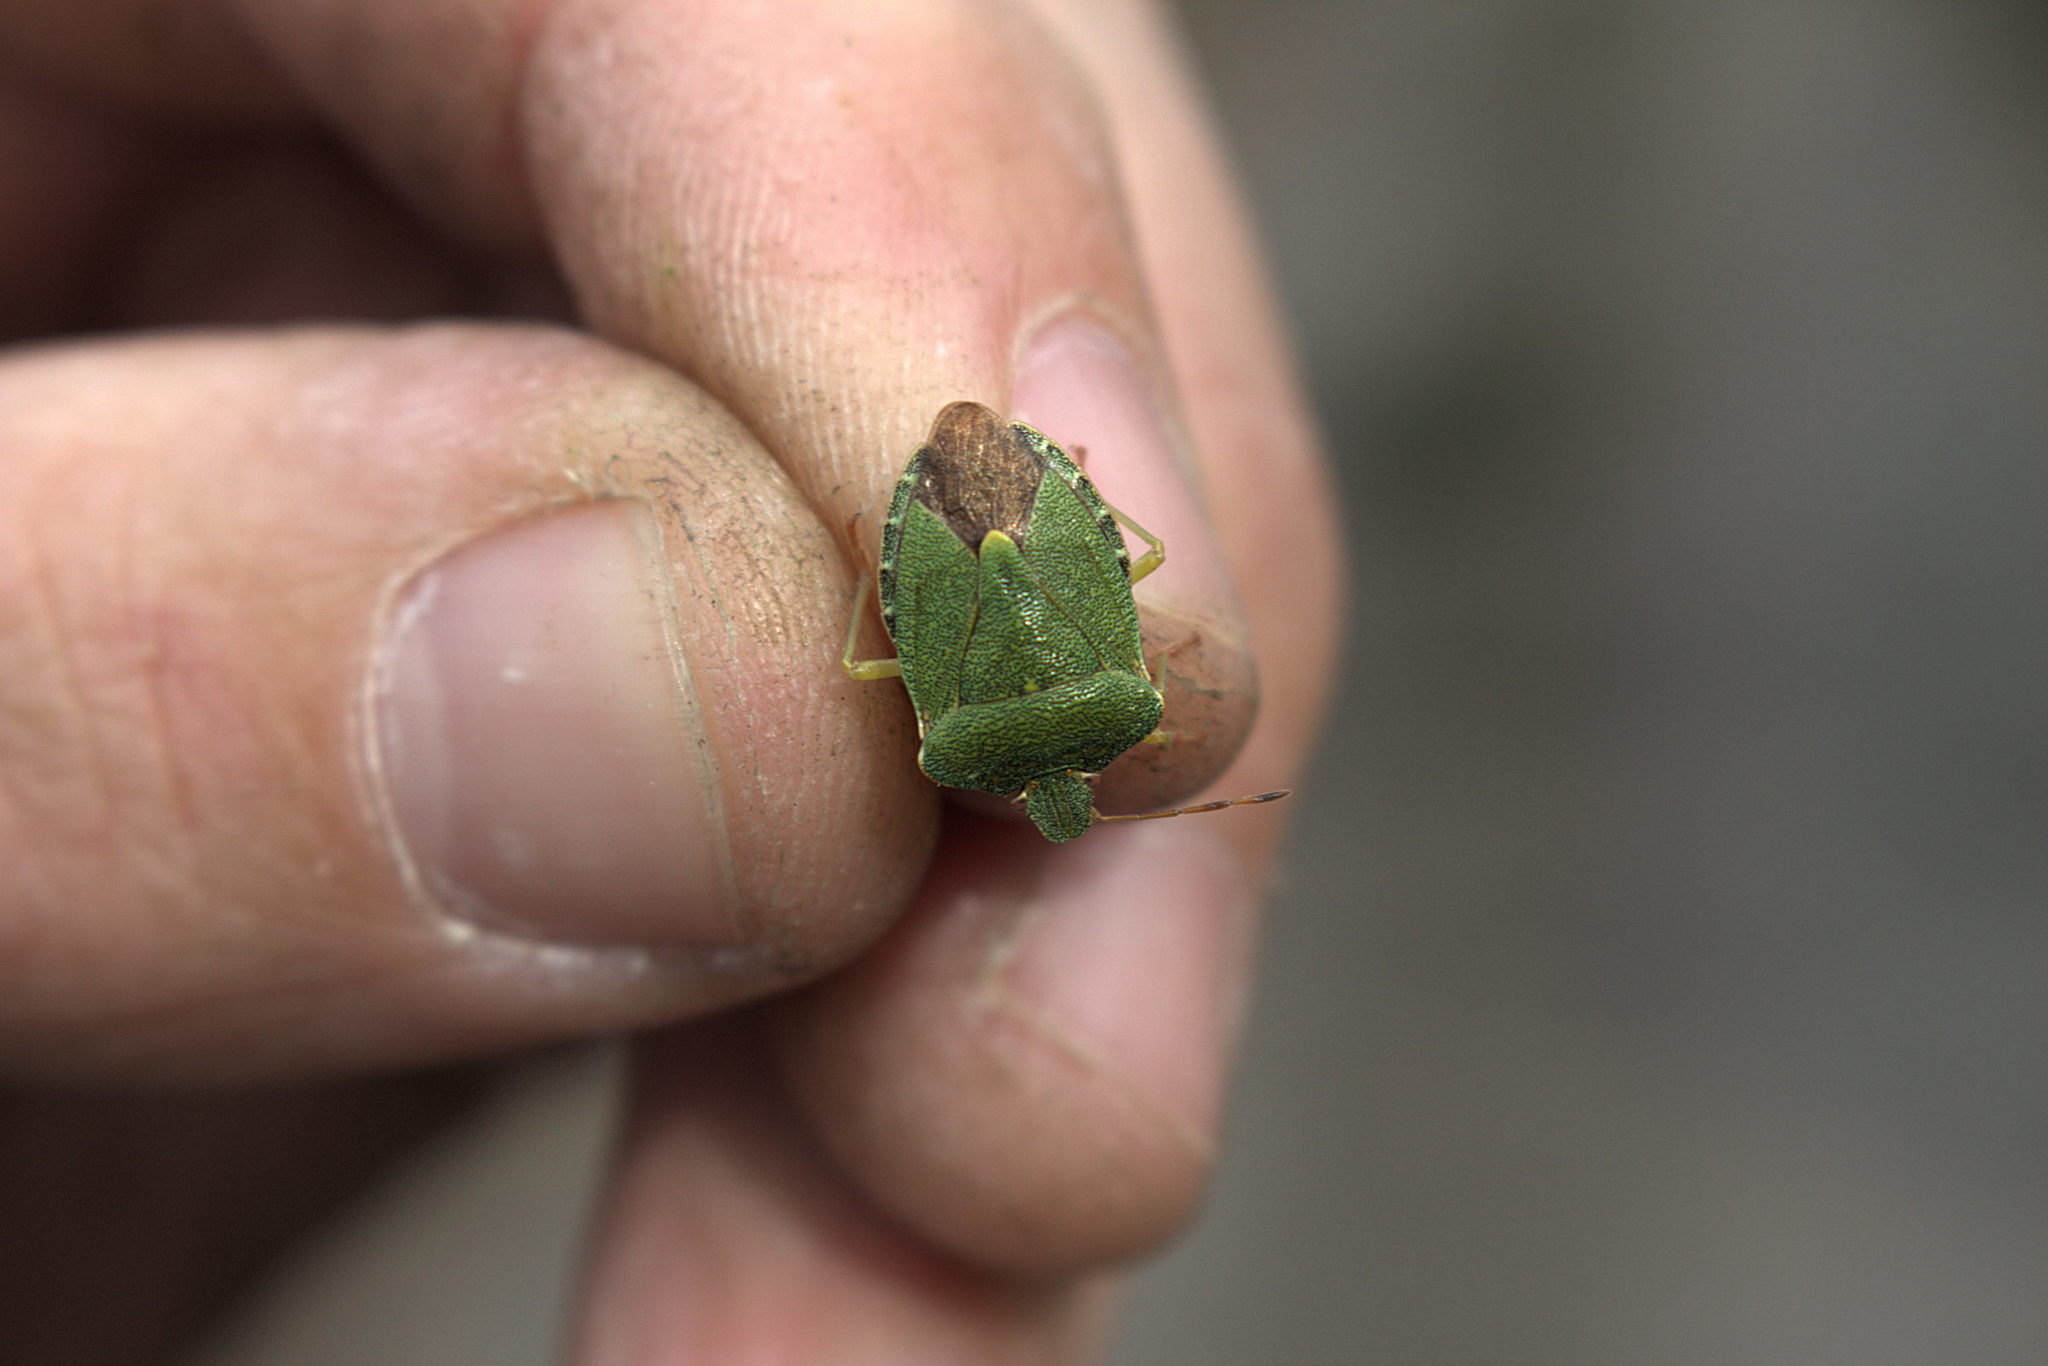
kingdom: Animalia
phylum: Arthropoda
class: Insecta
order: Hemiptera
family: Pentatomidae
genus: Palomena
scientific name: Palomena prasina
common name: Green shieldbug
